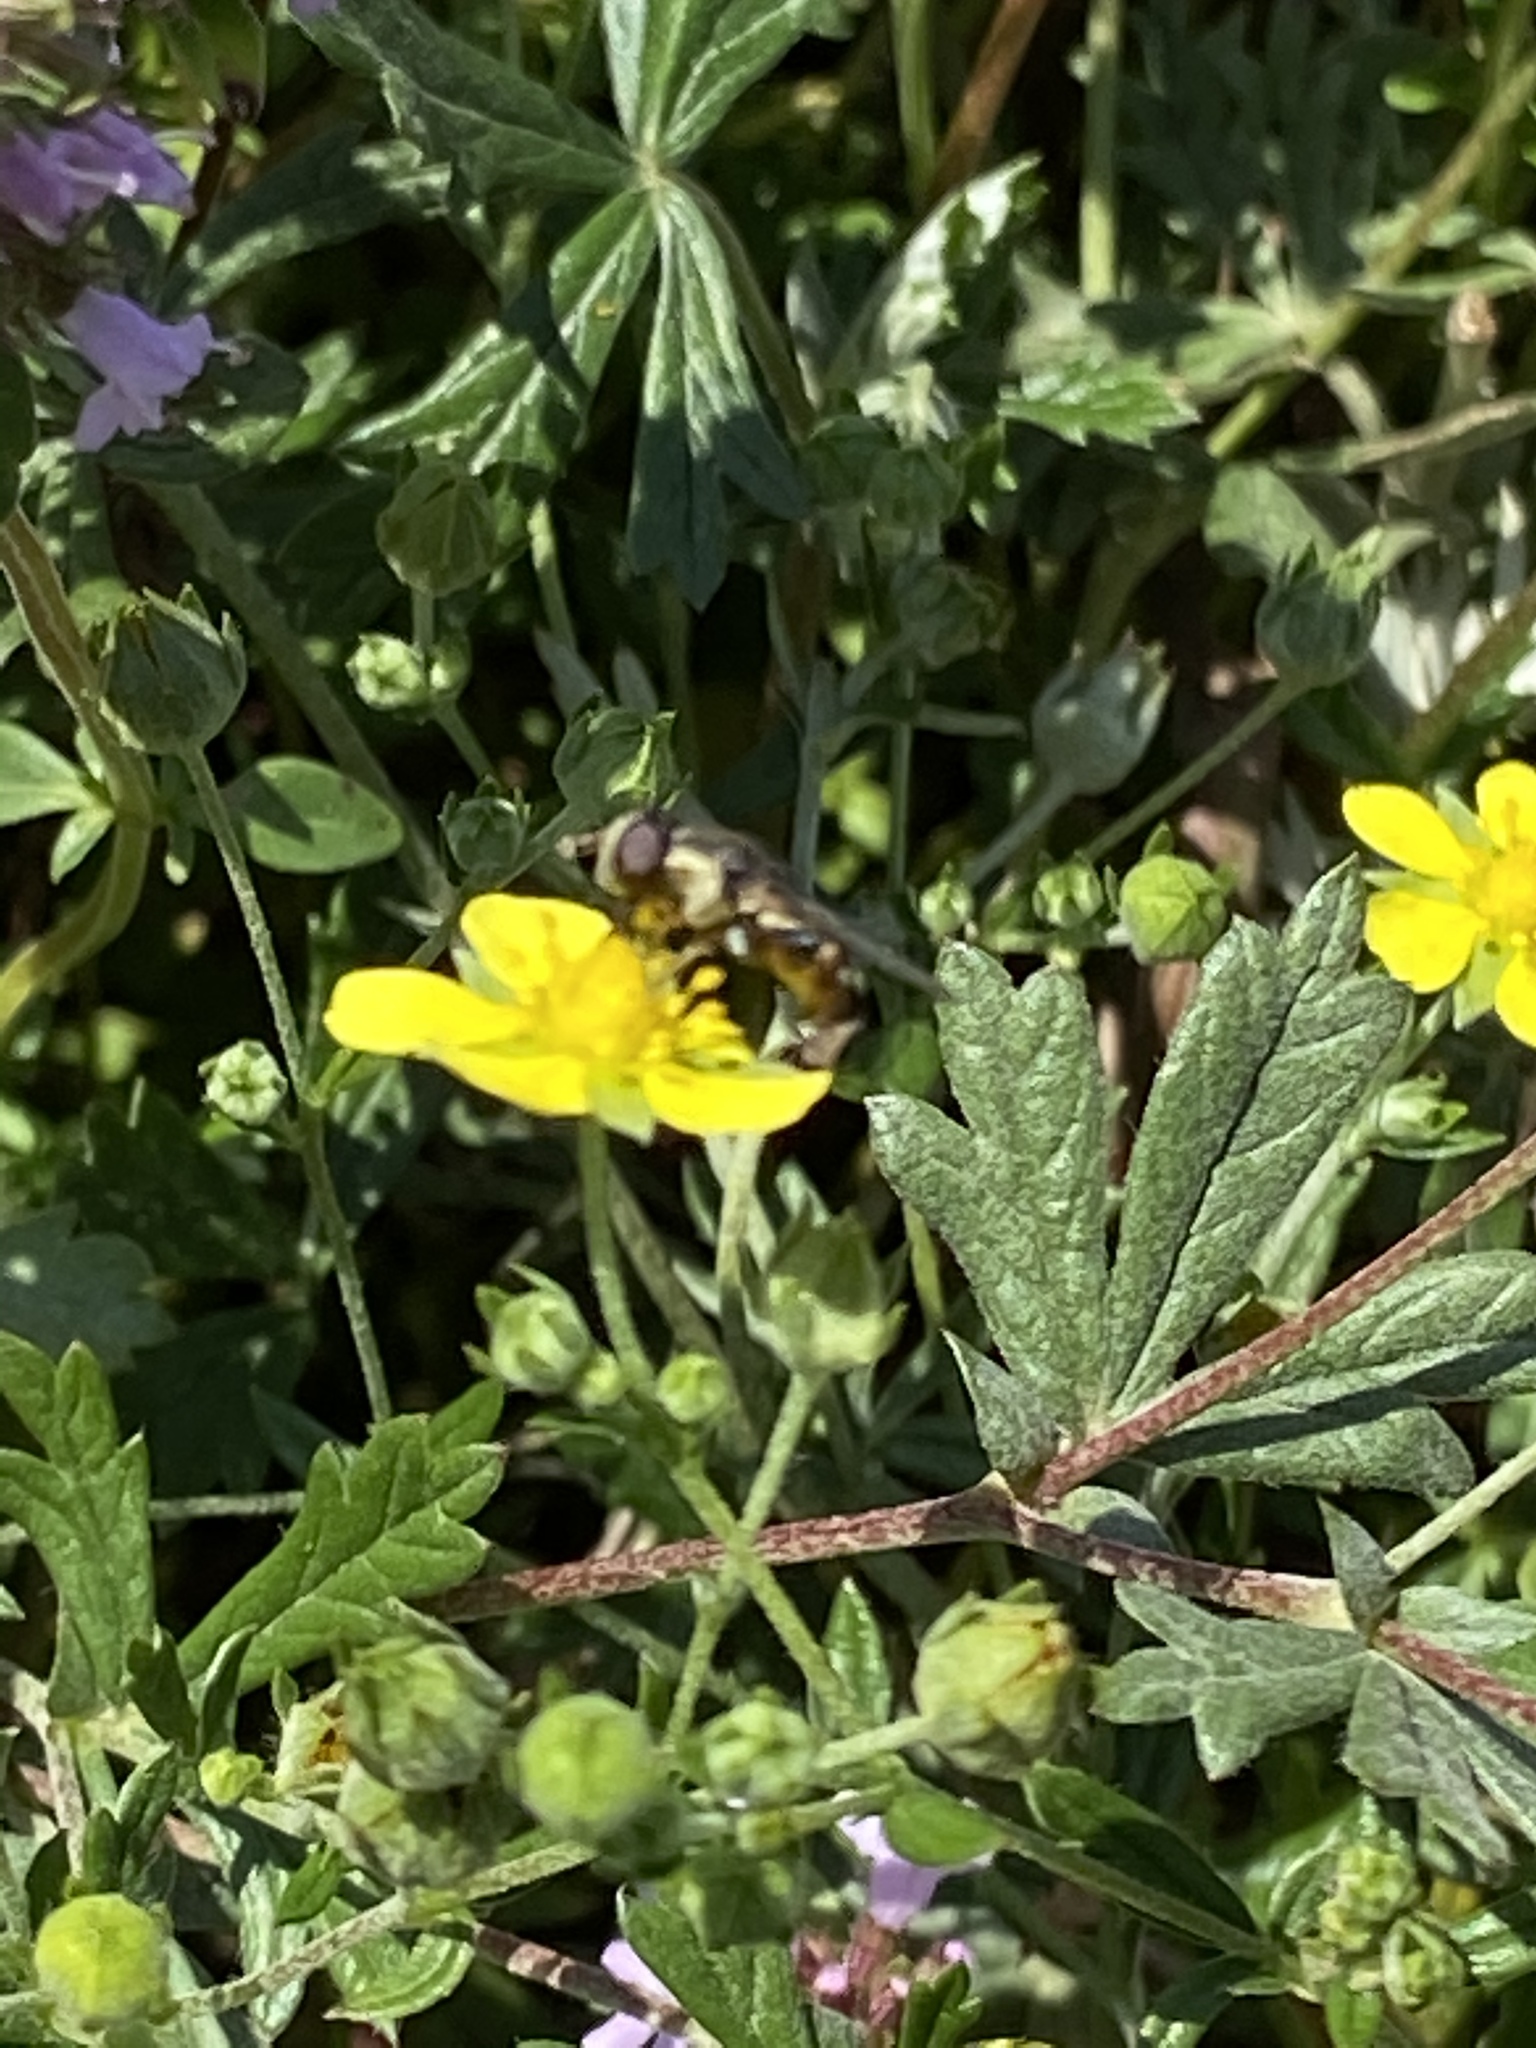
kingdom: Animalia
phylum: Arthropoda
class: Insecta
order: Diptera
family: Syrphidae
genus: Syritta
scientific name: Syritta
